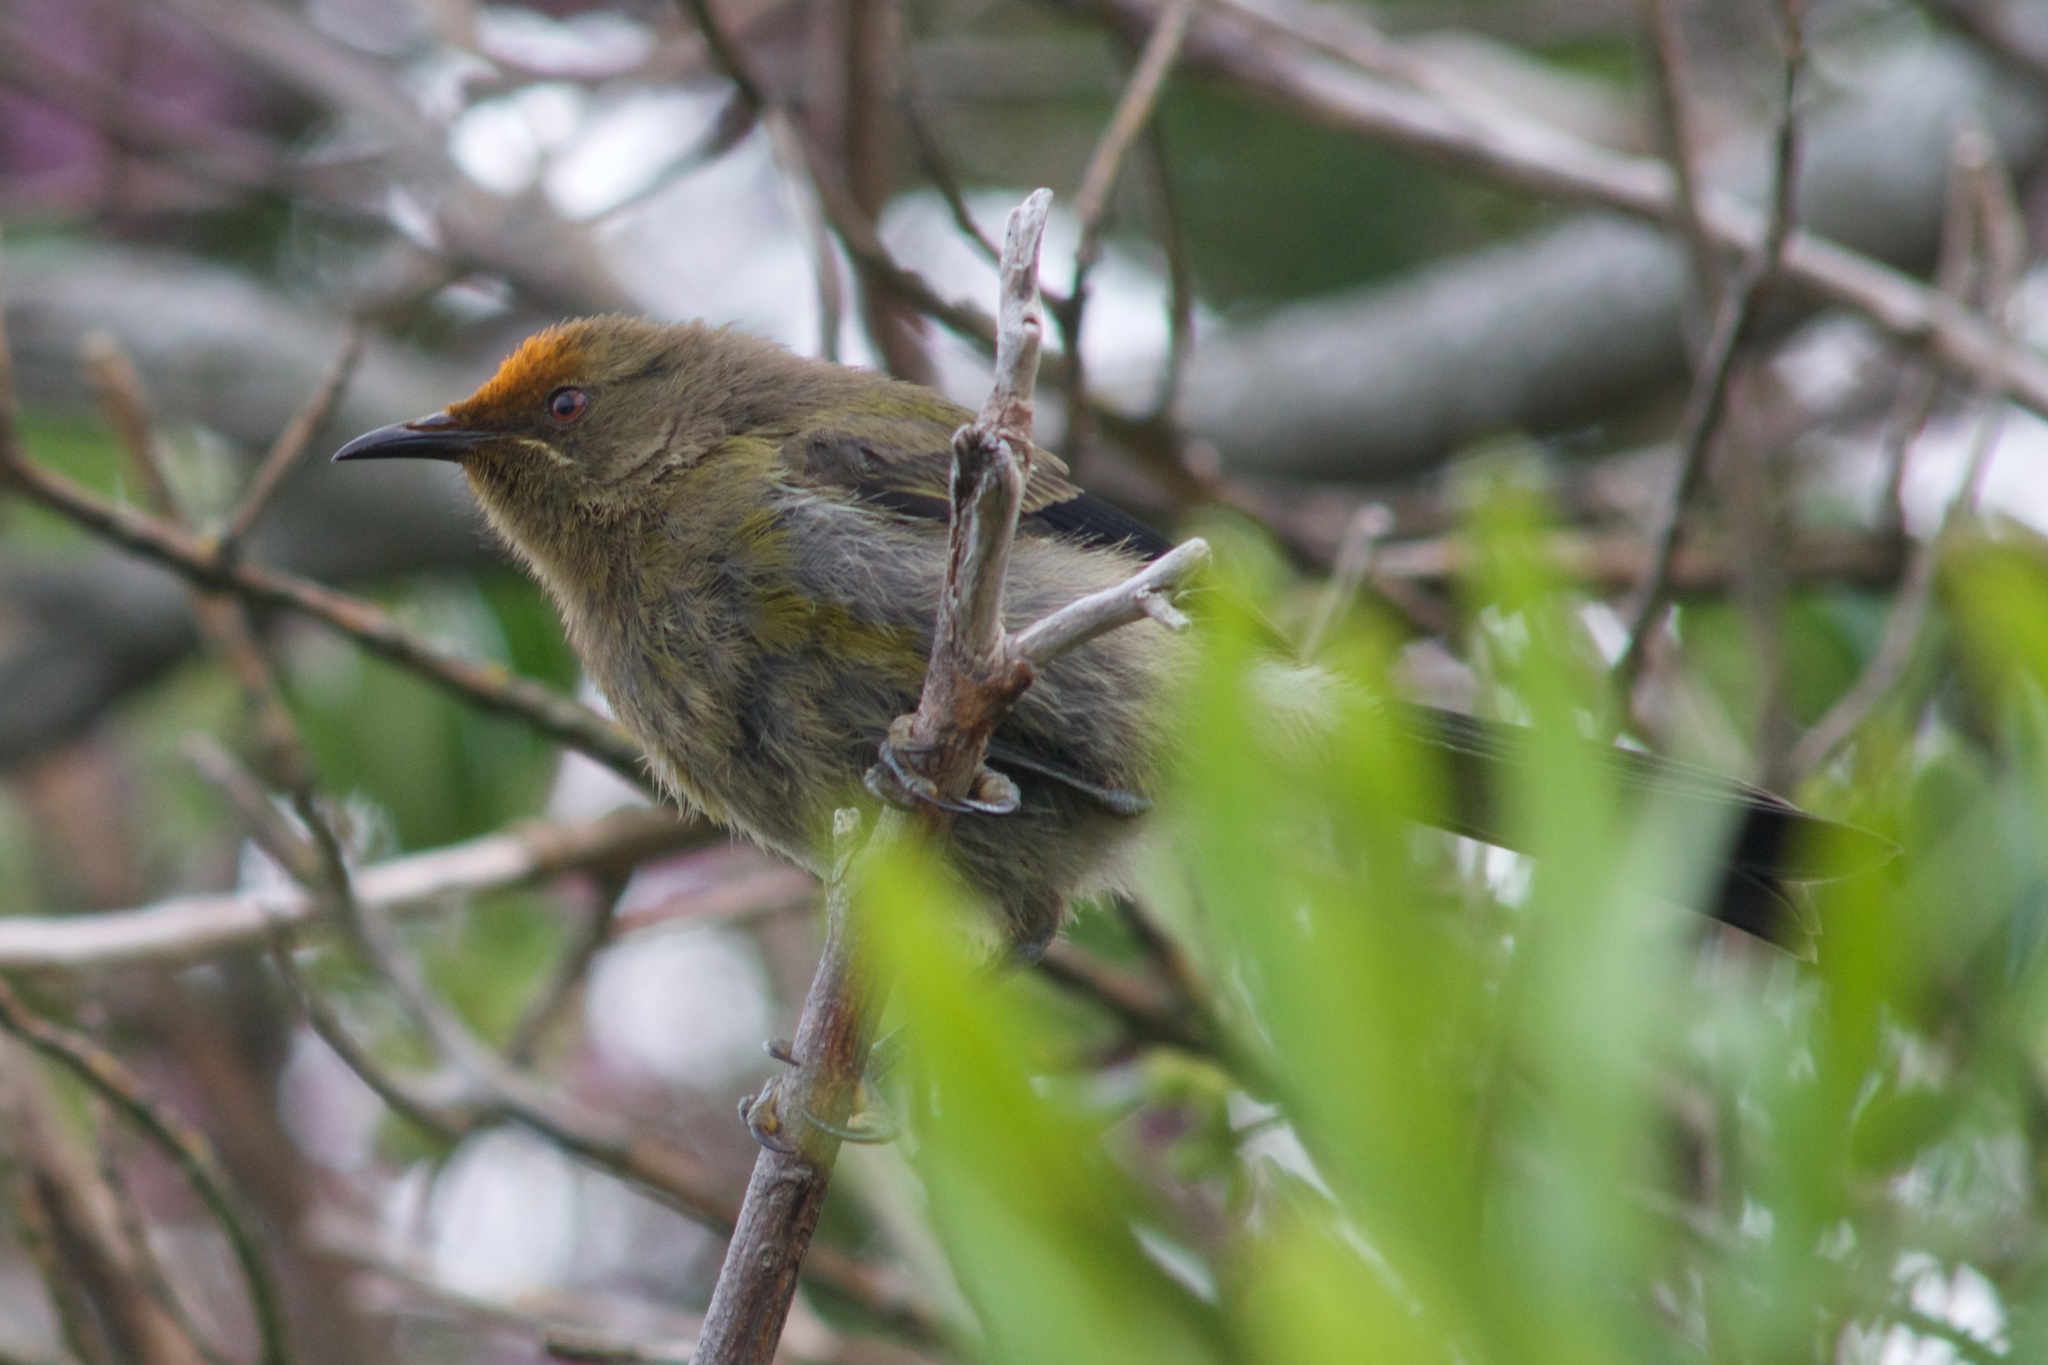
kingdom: Animalia
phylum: Chordata
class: Aves
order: Passeriformes
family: Meliphagidae
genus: Anthornis
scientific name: Anthornis melanura
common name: New zealand bellbird
